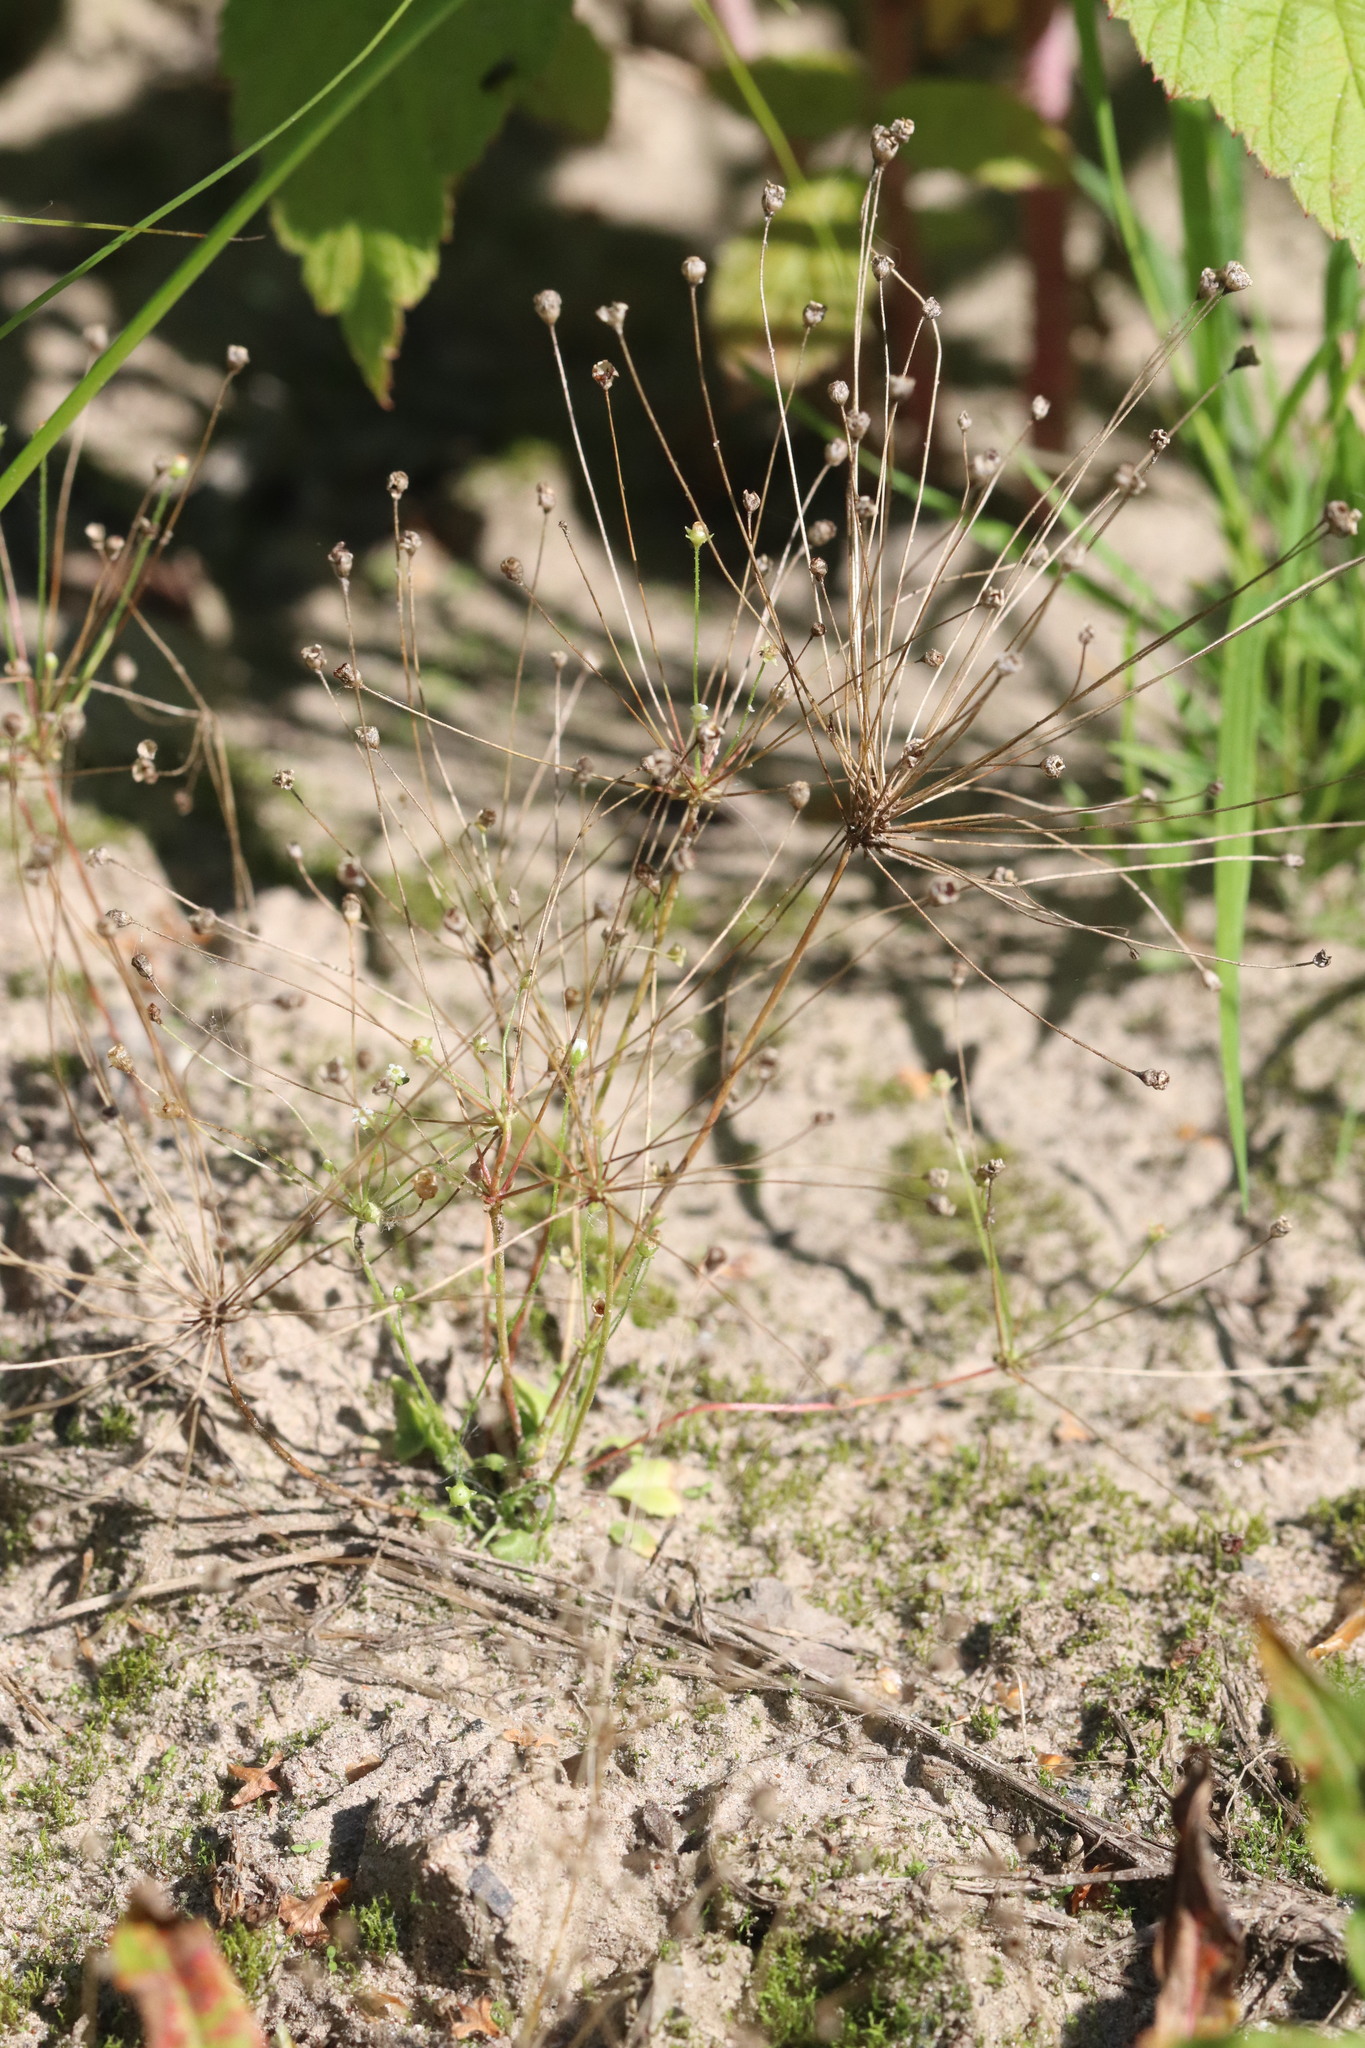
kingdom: Plantae
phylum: Tracheophyta
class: Magnoliopsida
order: Ericales
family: Primulaceae
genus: Androsace
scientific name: Androsace filiformis
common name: Filiform rock jasmine
